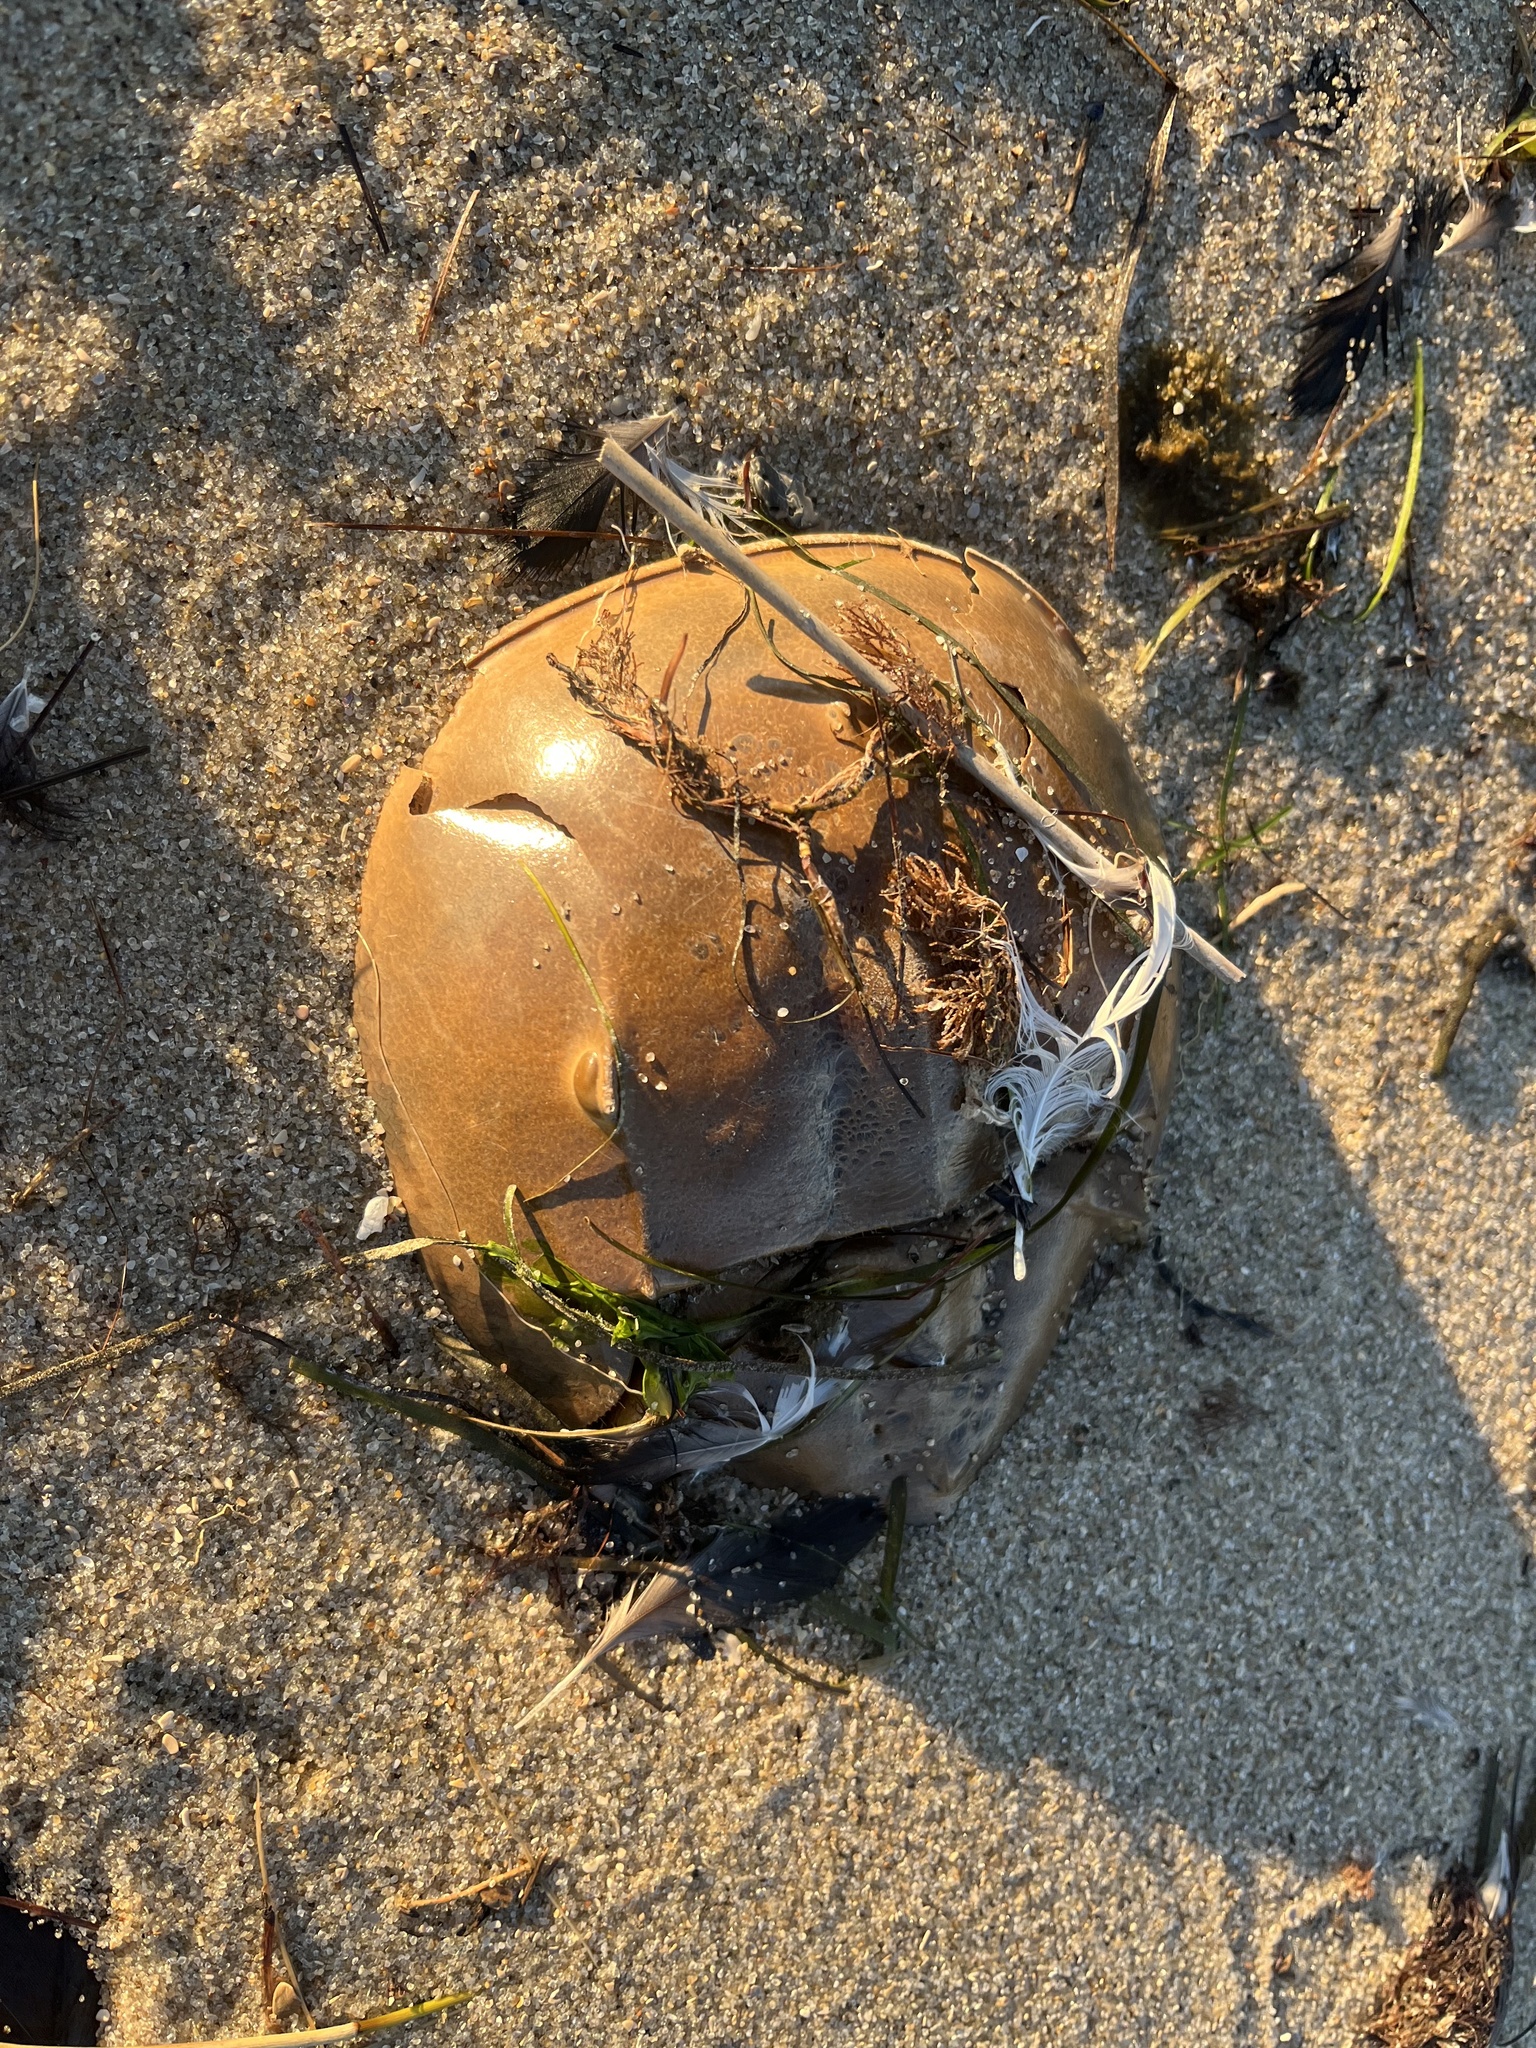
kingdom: Animalia
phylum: Arthropoda
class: Merostomata
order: Xiphosurida
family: Limulidae
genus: Limulus
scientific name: Limulus polyphemus
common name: Horseshoe crab
